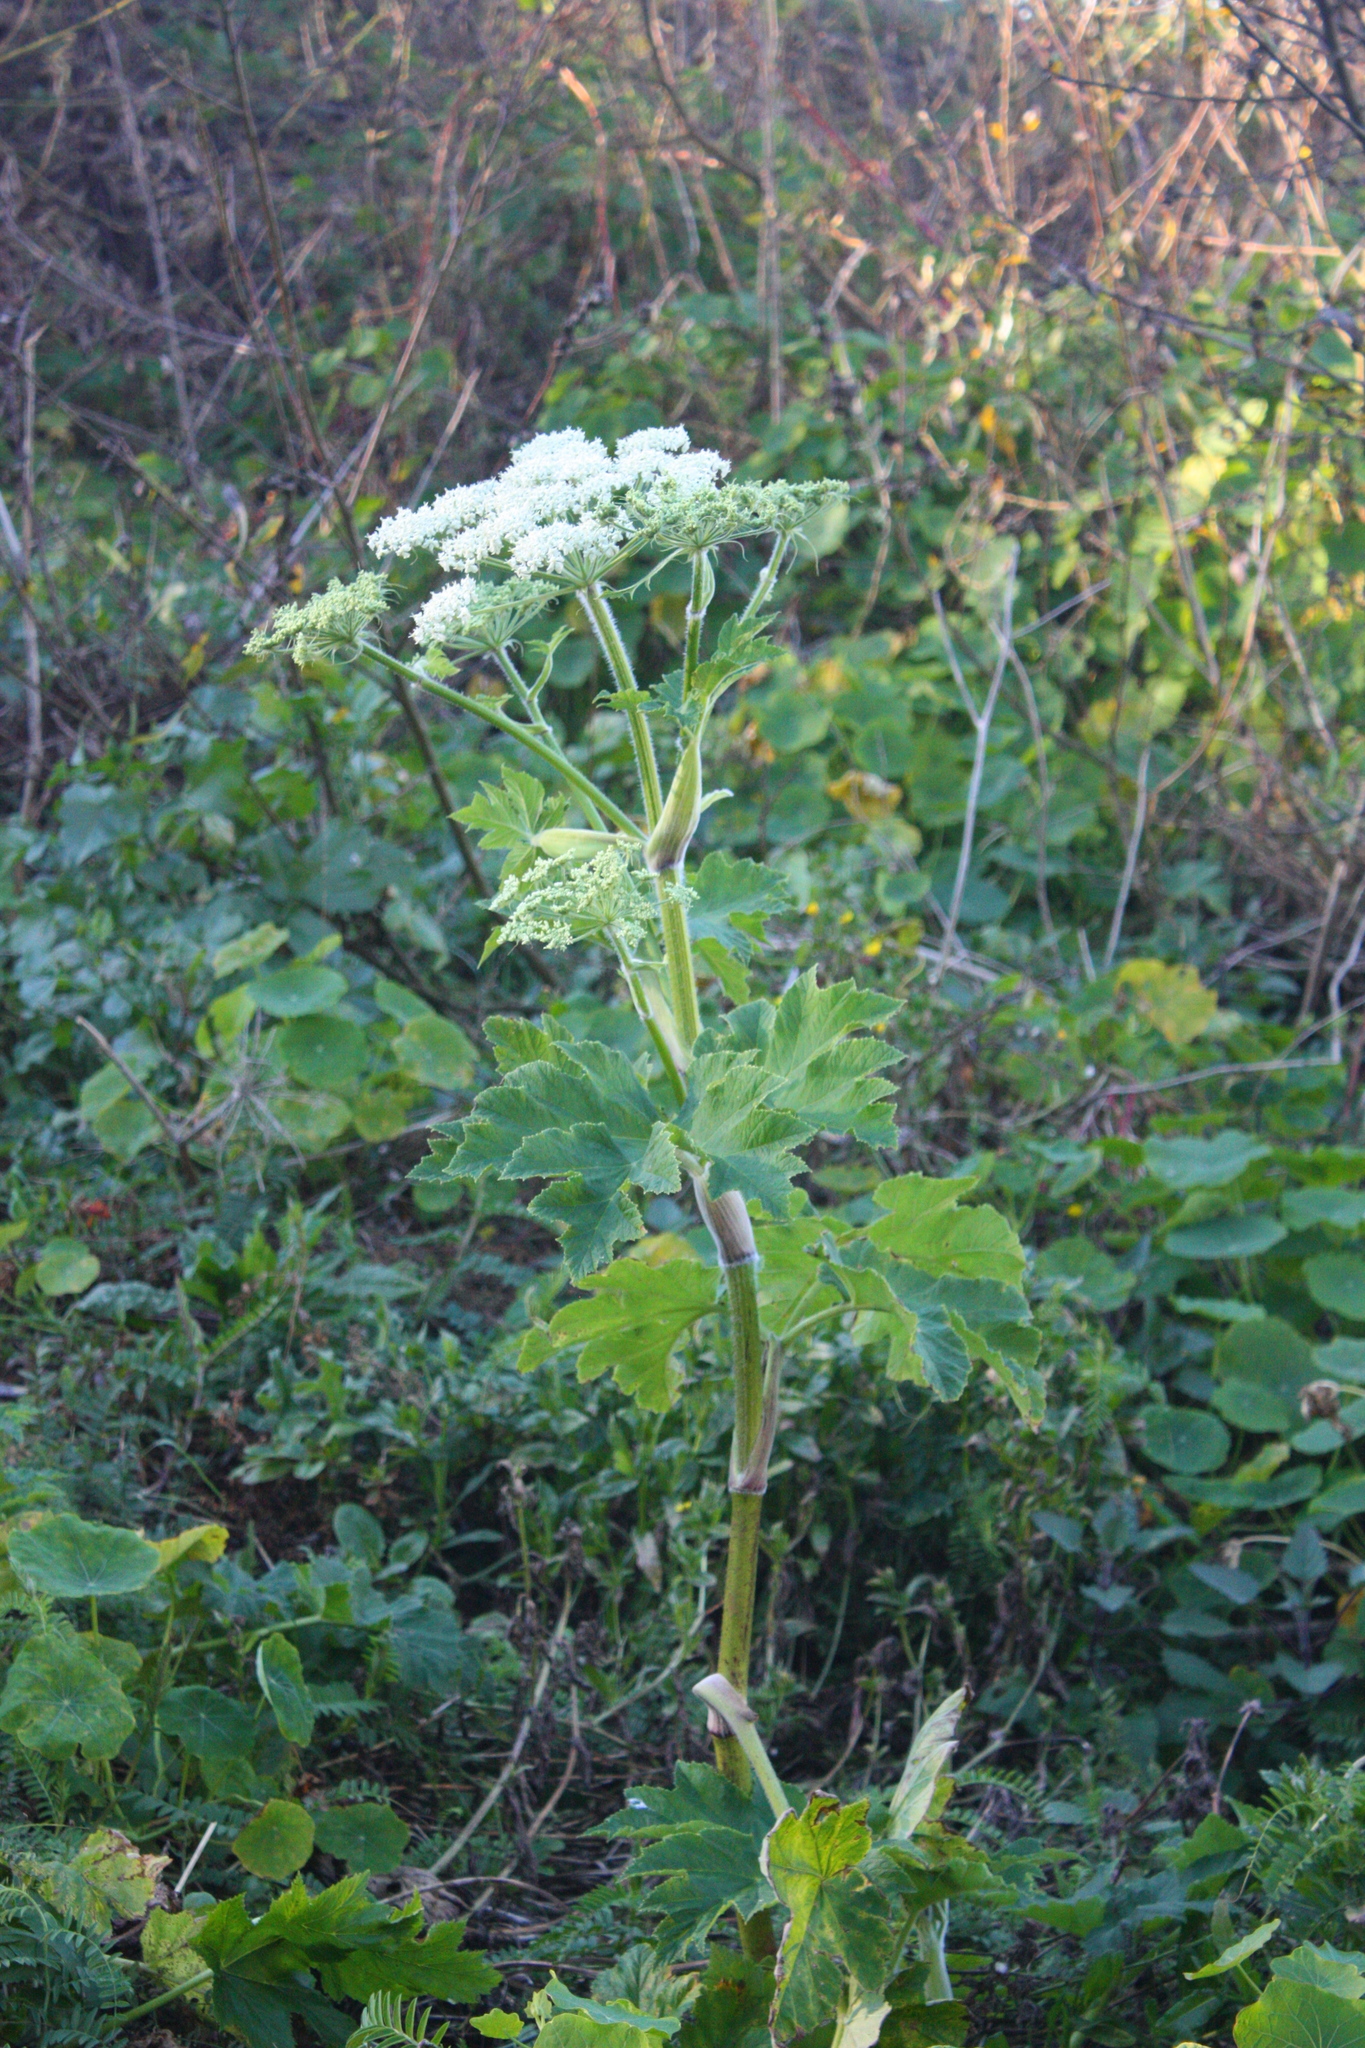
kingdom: Plantae
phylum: Tracheophyta
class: Magnoliopsida
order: Apiales
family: Apiaceae
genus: Heracleum
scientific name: Heracleum maximum
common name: American cow parsnip
